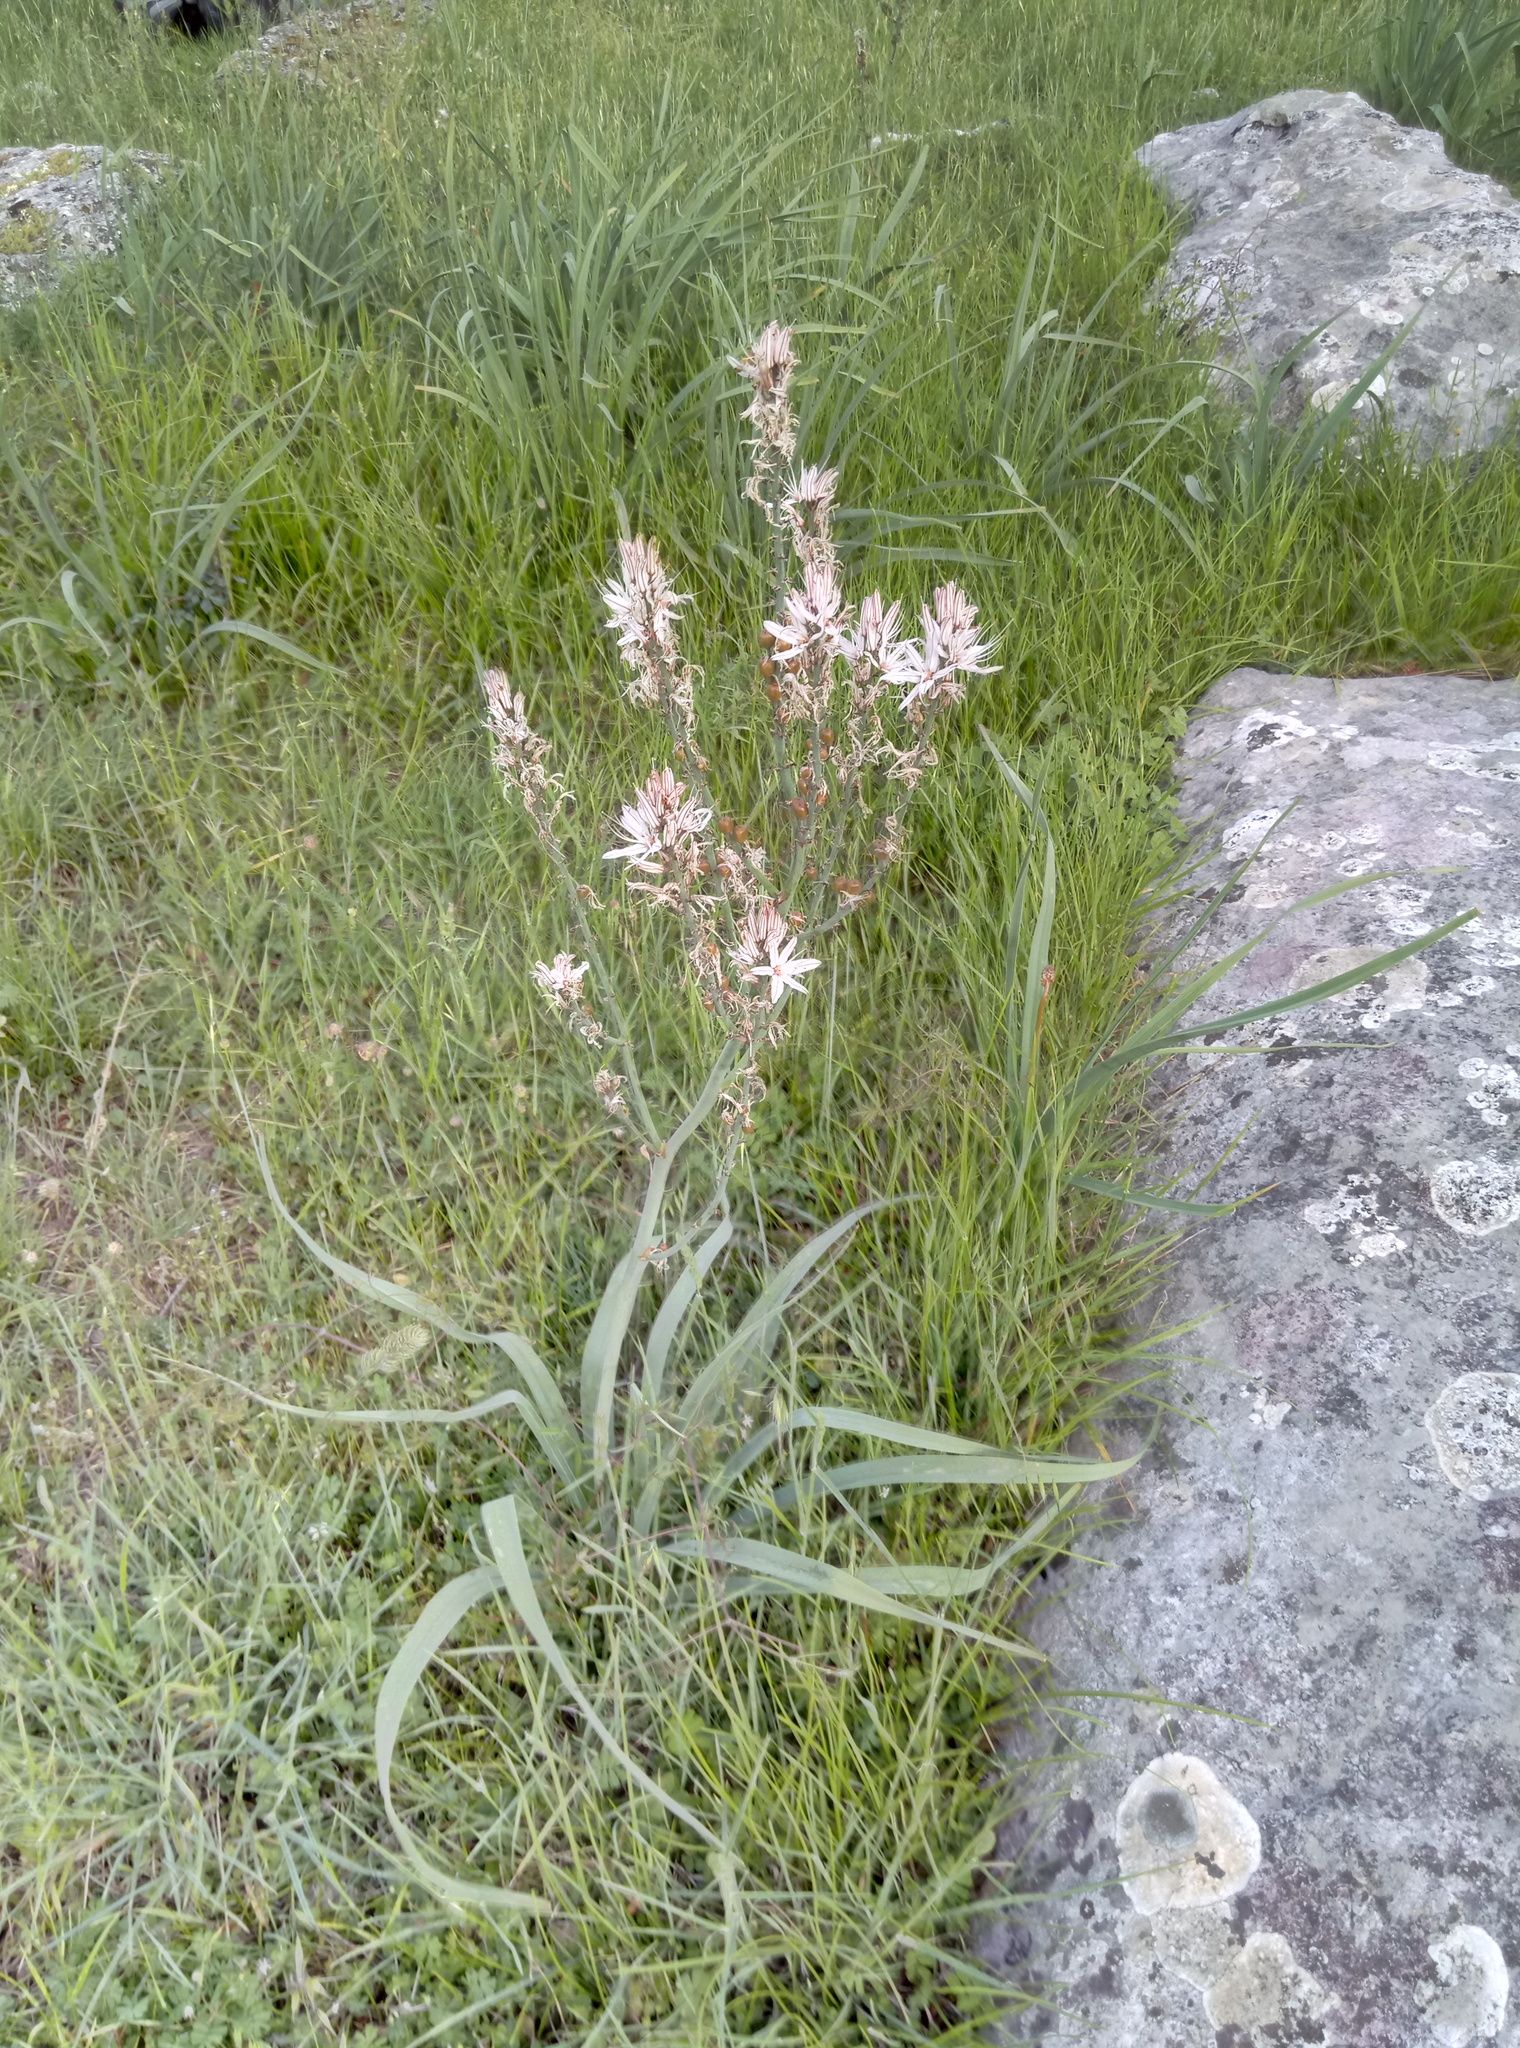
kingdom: Plantae
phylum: Tracheophyta
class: Liliopsida
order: Asparagales
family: Asphodelaceae
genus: Asphodelus
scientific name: Asphodelus ramosus
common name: Silverrod
